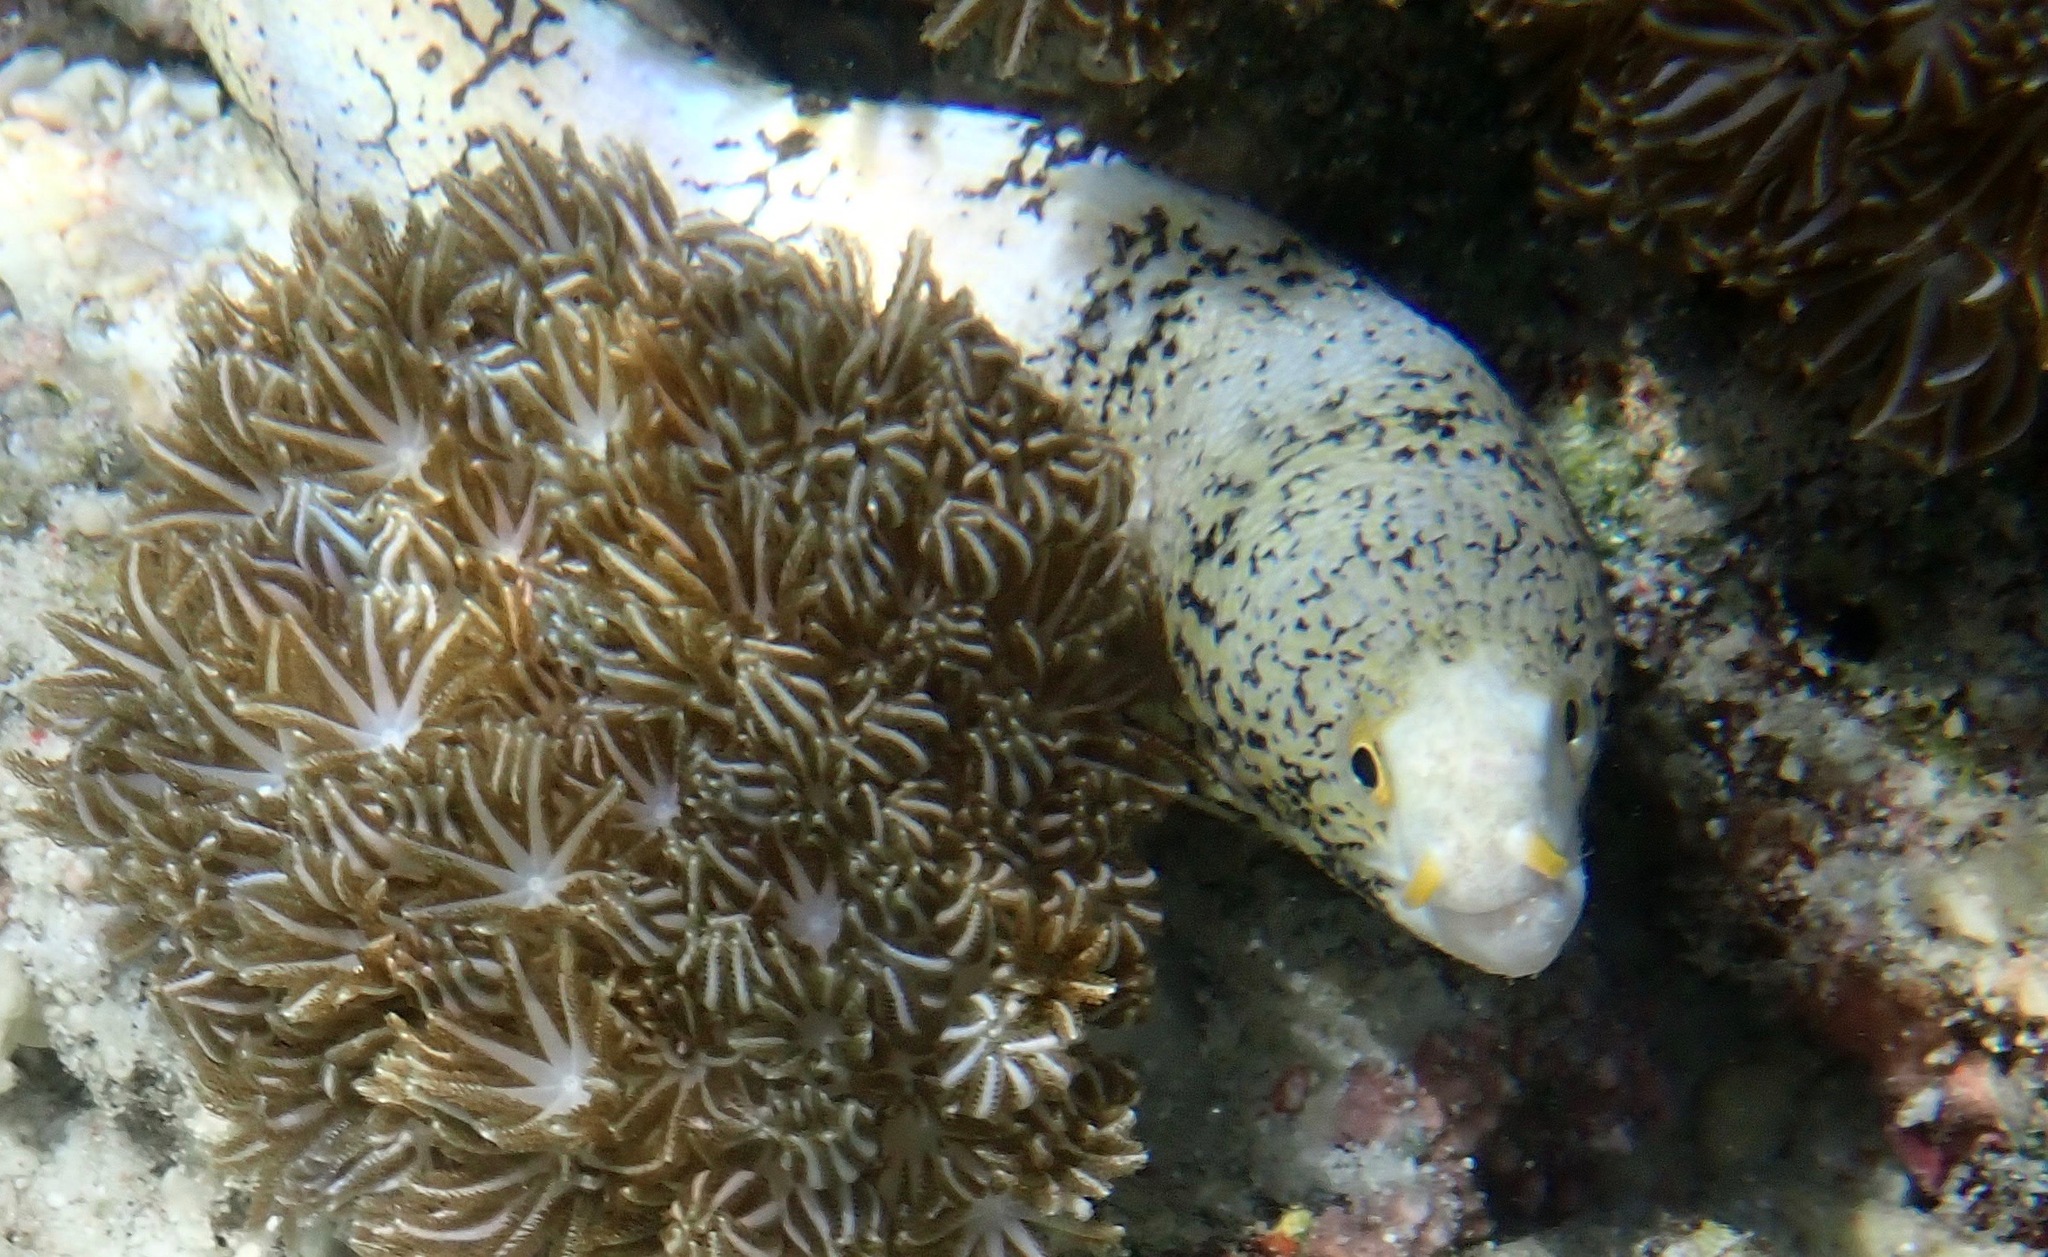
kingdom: Animalia
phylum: Chordata
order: Anguilliformes
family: Muraenidae
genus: Echidna
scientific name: Echidna nebulosa
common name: Snowflake moray
